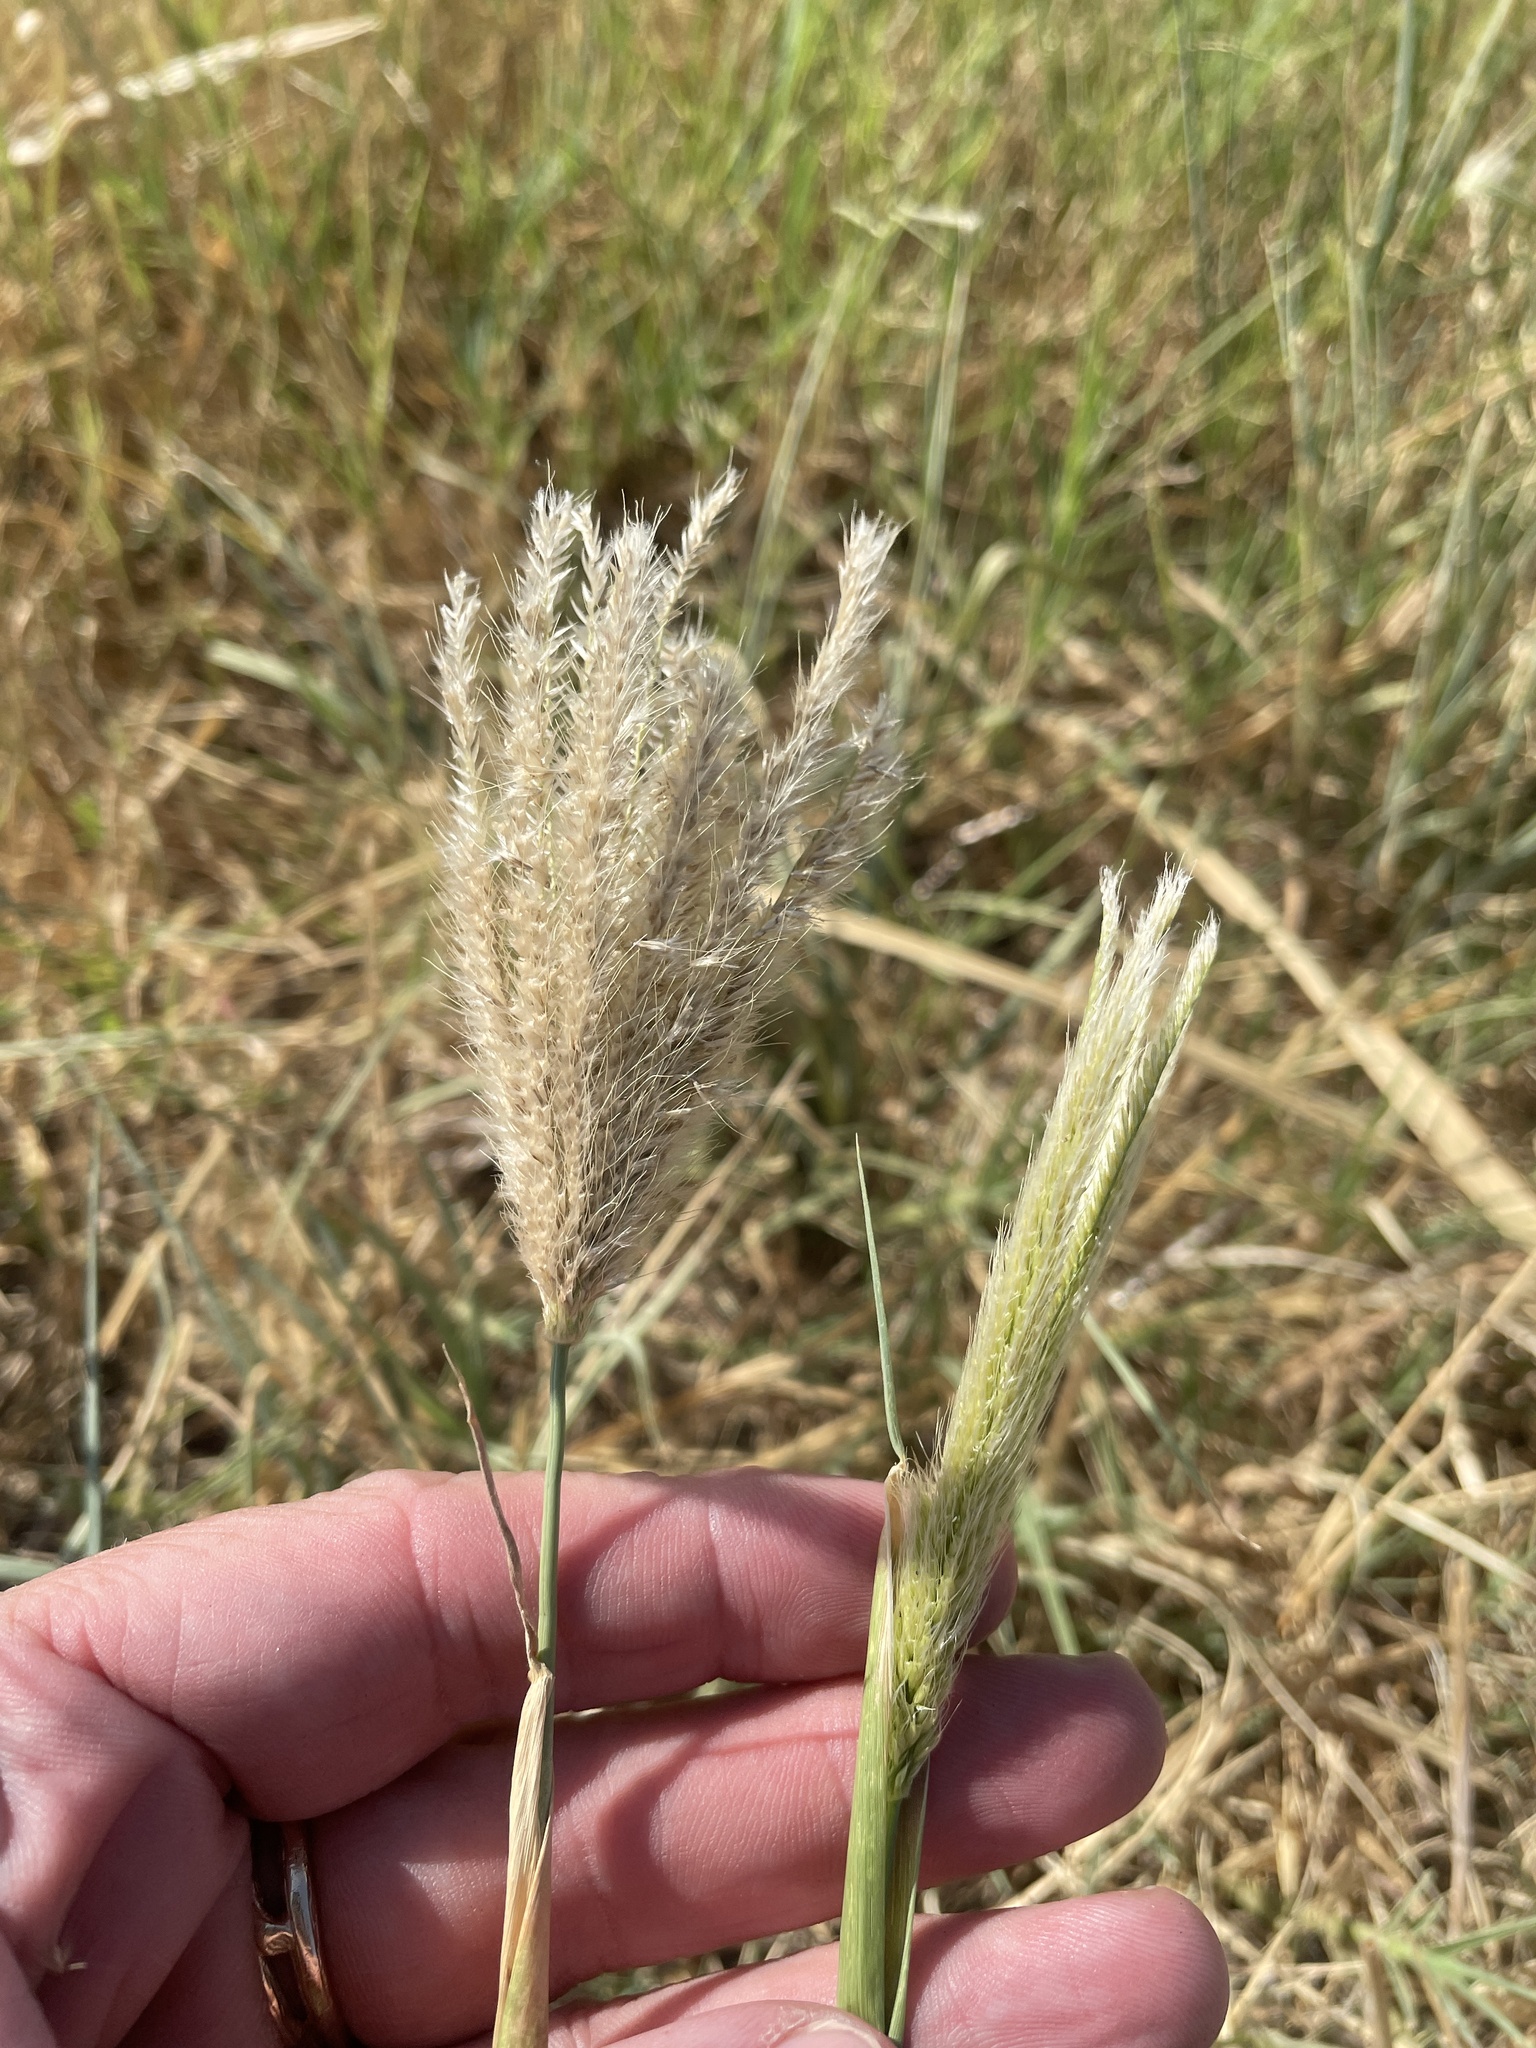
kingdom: Plantae
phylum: Tracheophyta
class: Liliopsida
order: Poales
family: Poaceae
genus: Chloris
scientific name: Chloris virgata
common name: Feathery rhodes-grass
